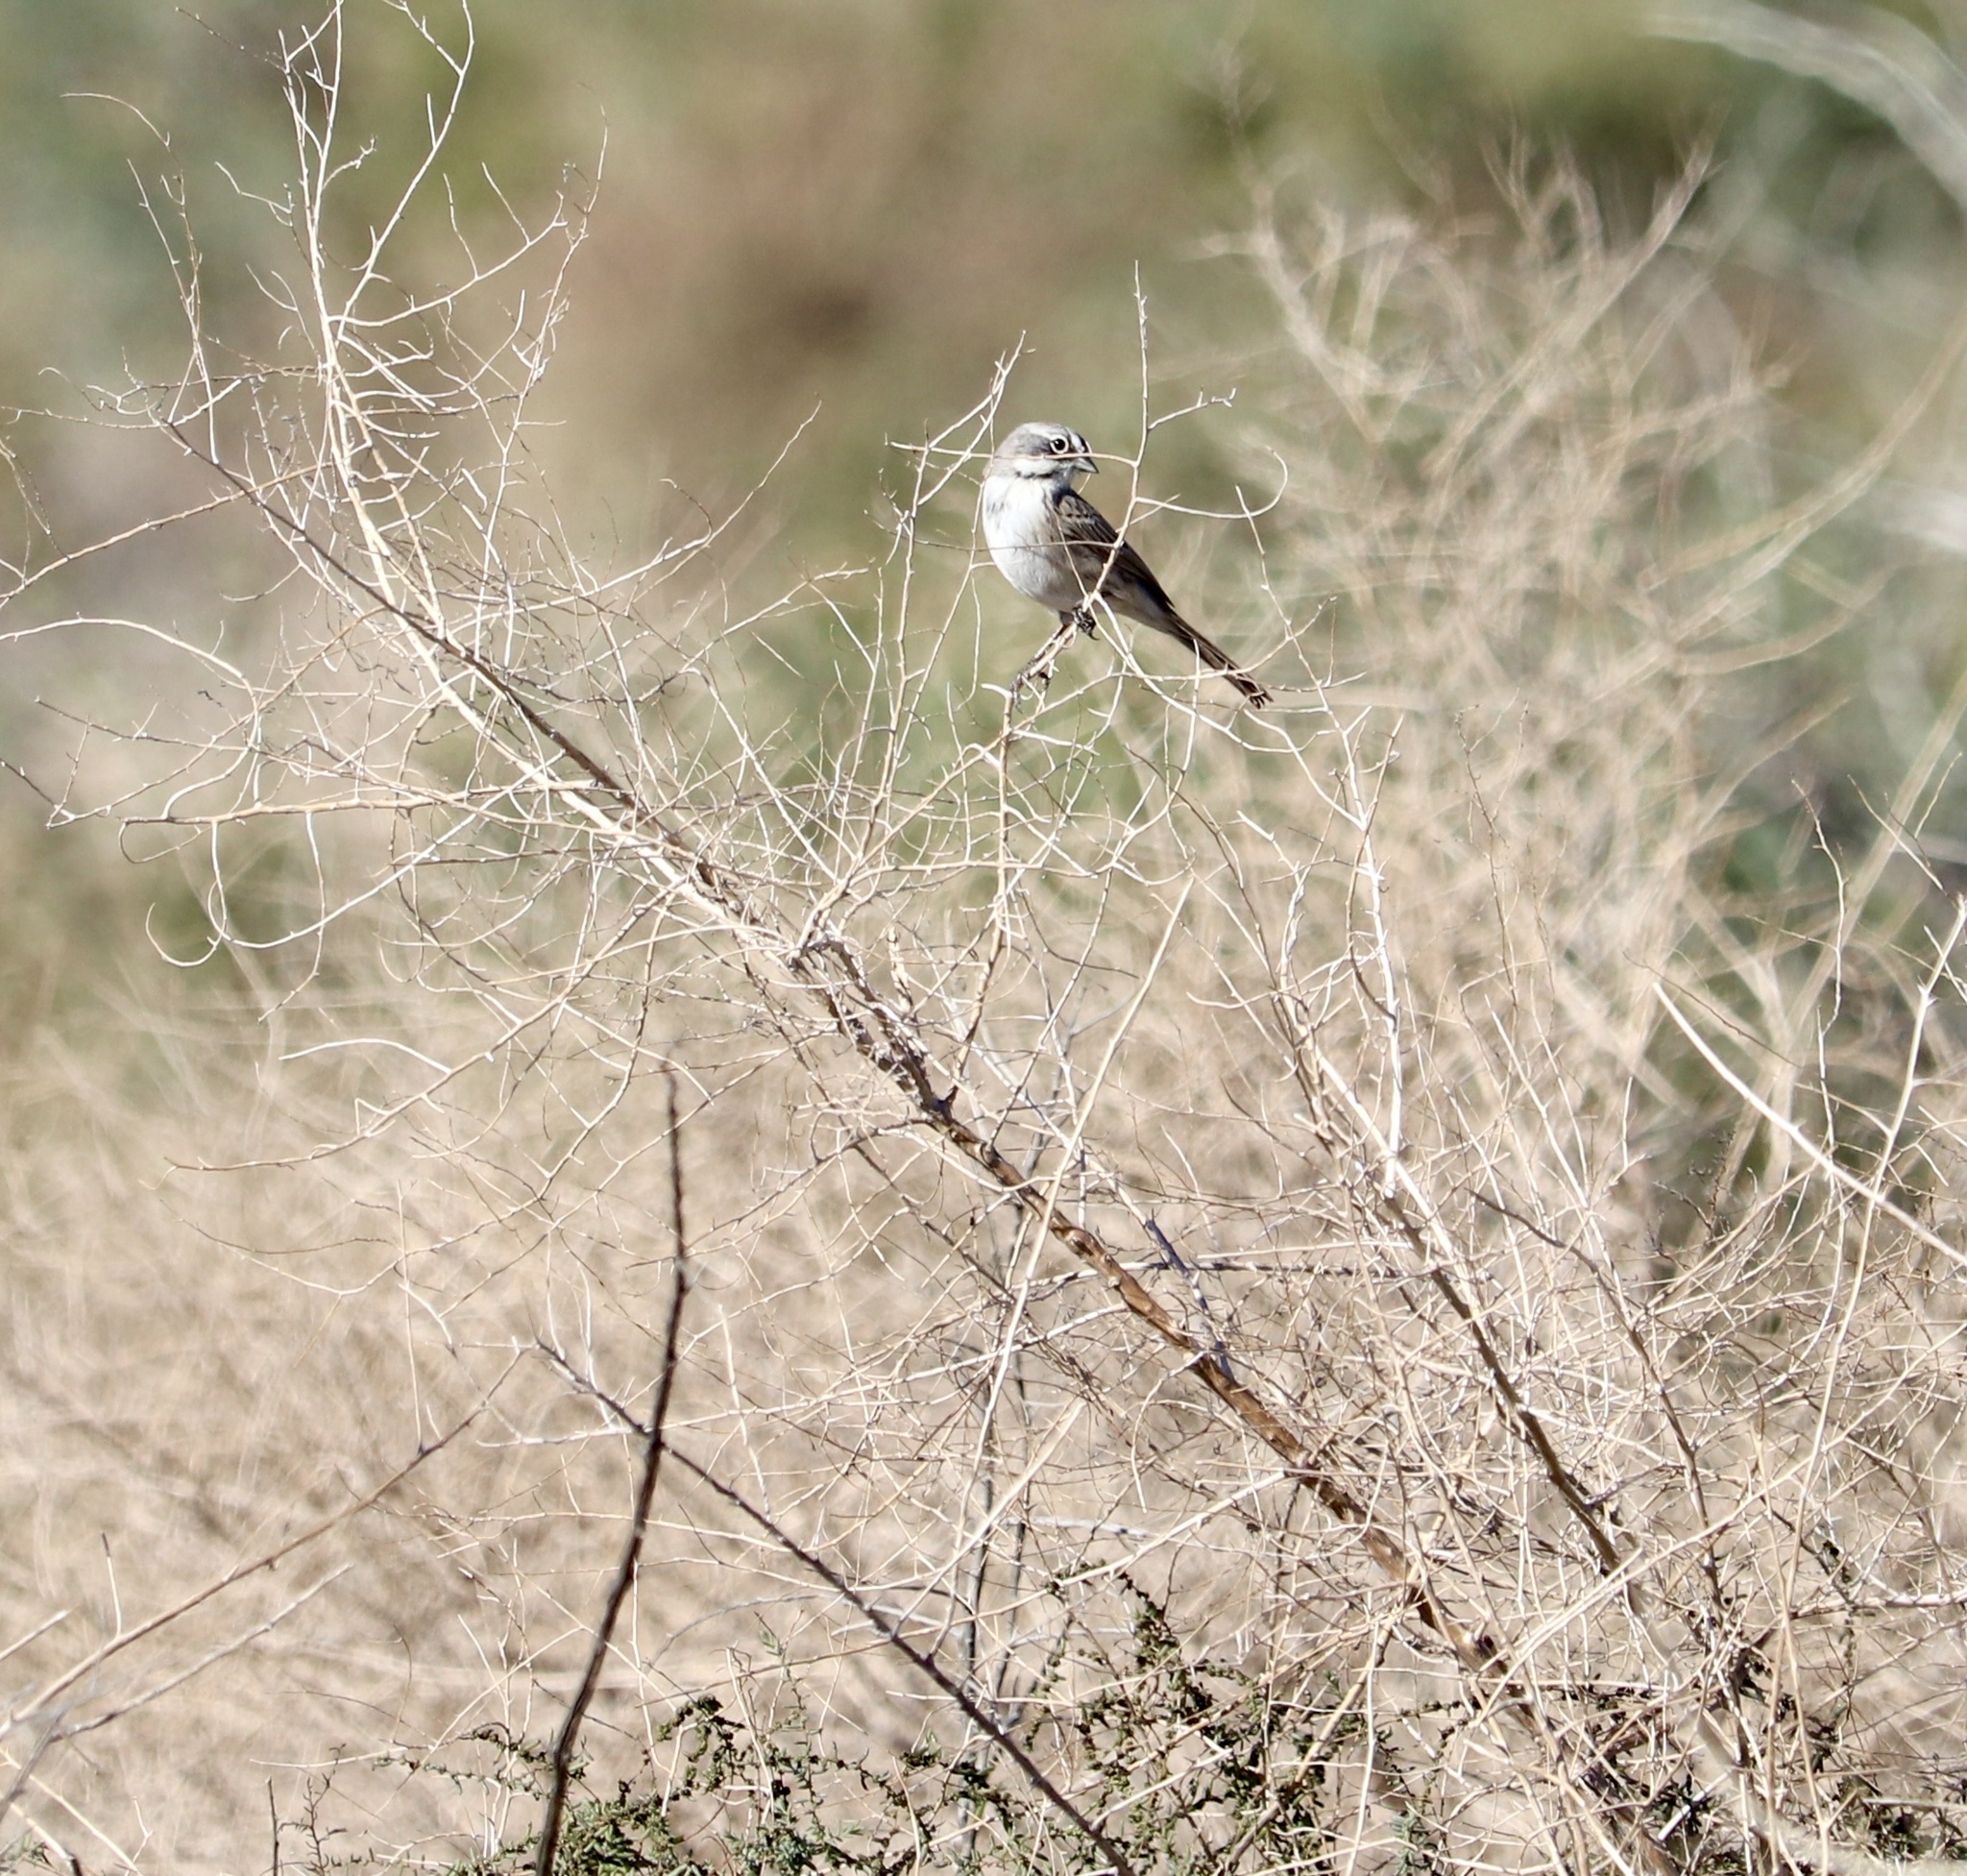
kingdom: Animalia
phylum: Chordata
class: Aves
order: Passeriformes
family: Passerellidae
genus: Artemisiospiza
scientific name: Artemisiospiza
